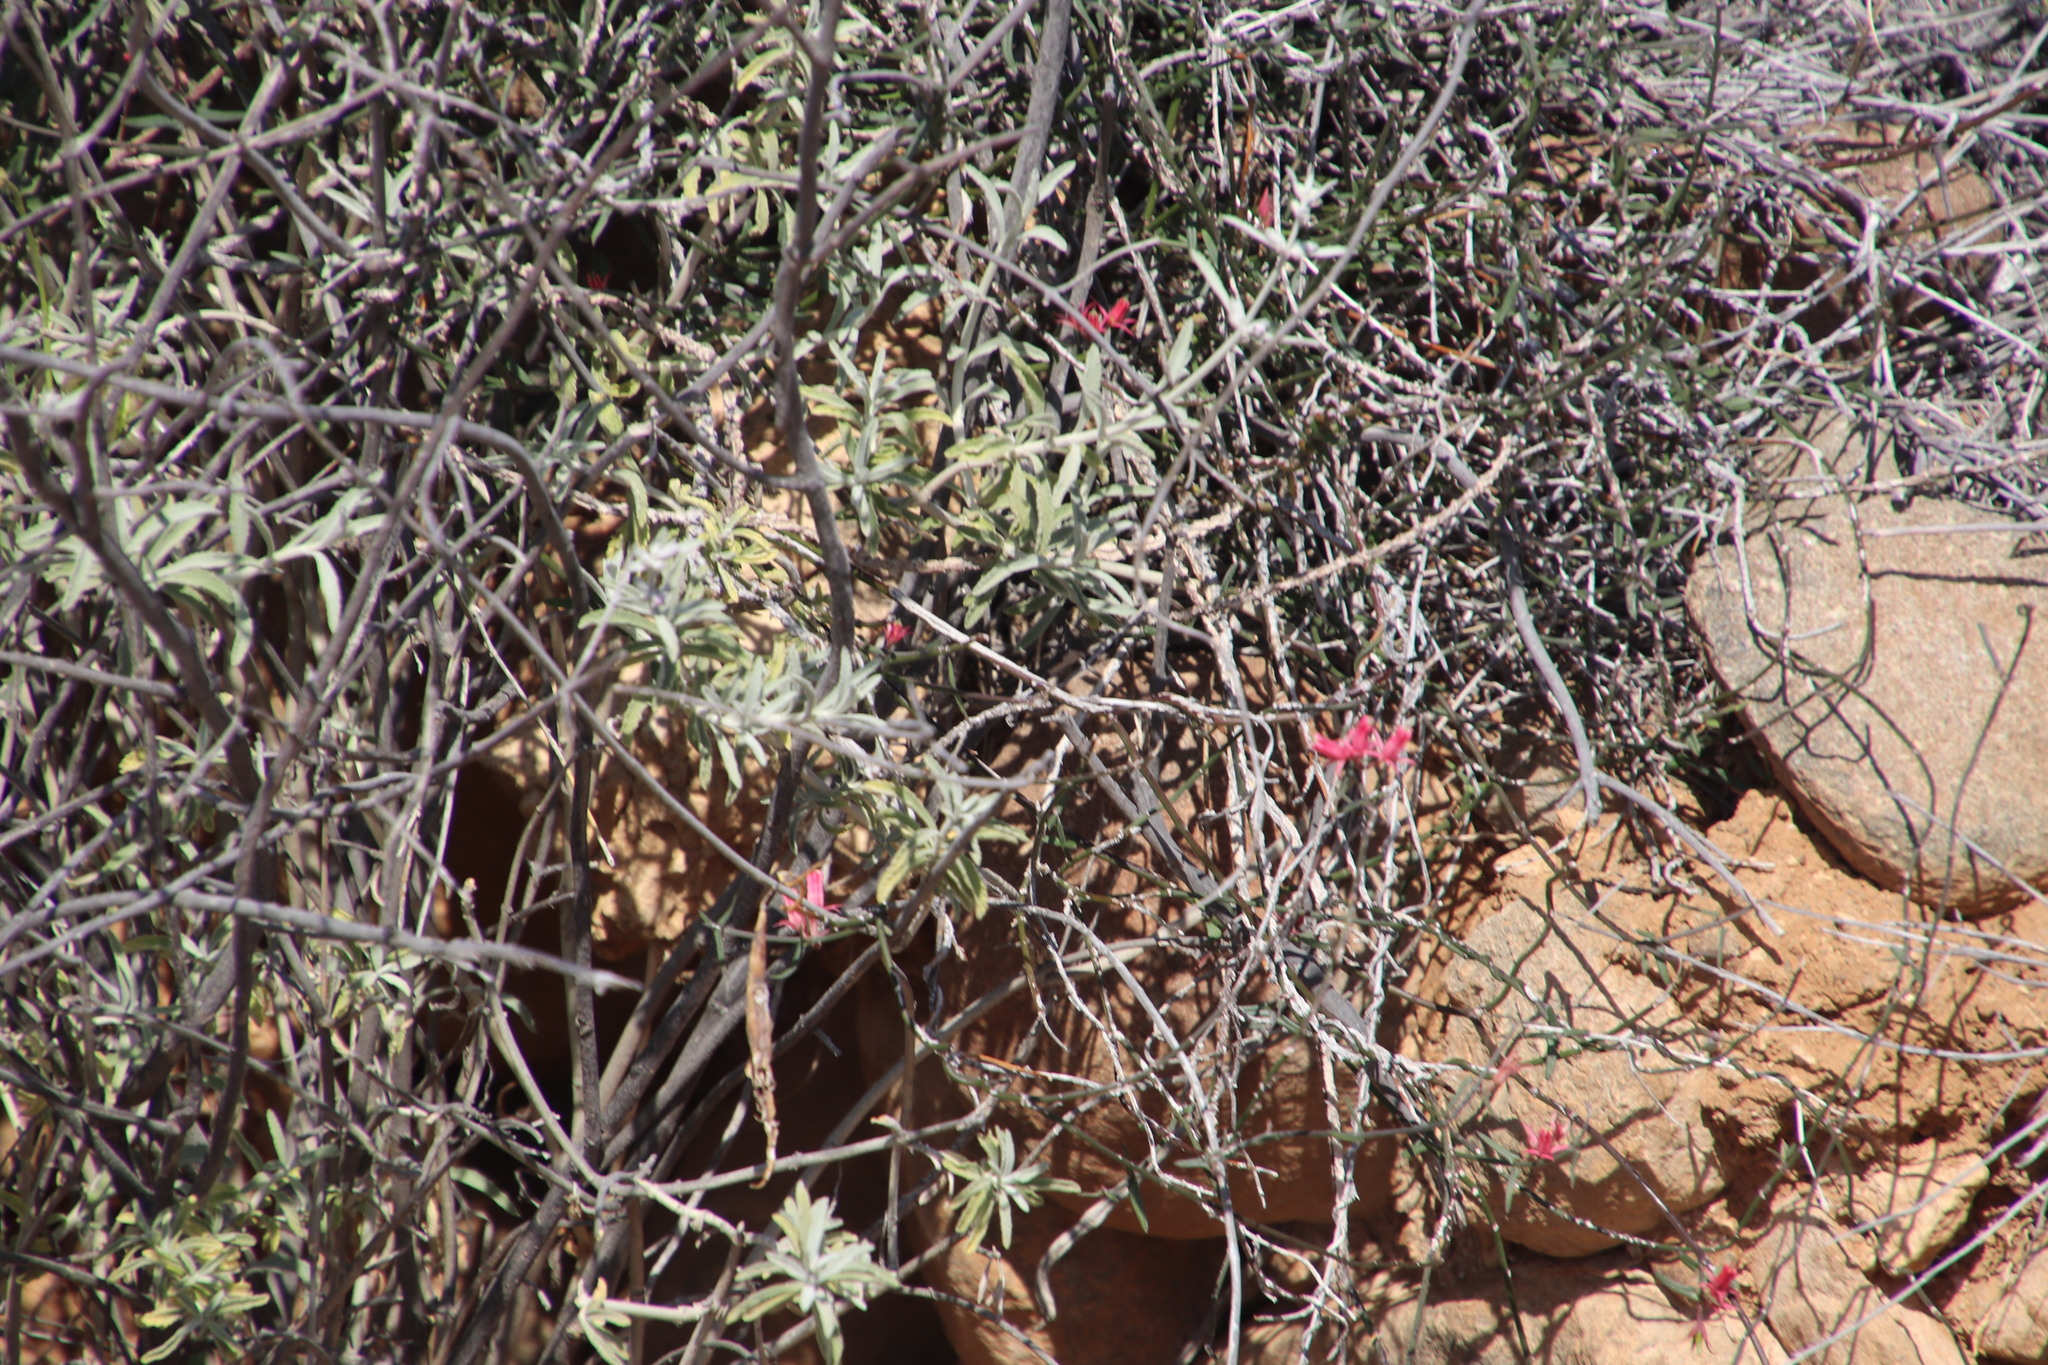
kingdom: Plantae
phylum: Tracheophyta
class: Magnoliopsida
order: Lamiales
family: Lamiaceae
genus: Stachys
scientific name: Stachys rugosa
